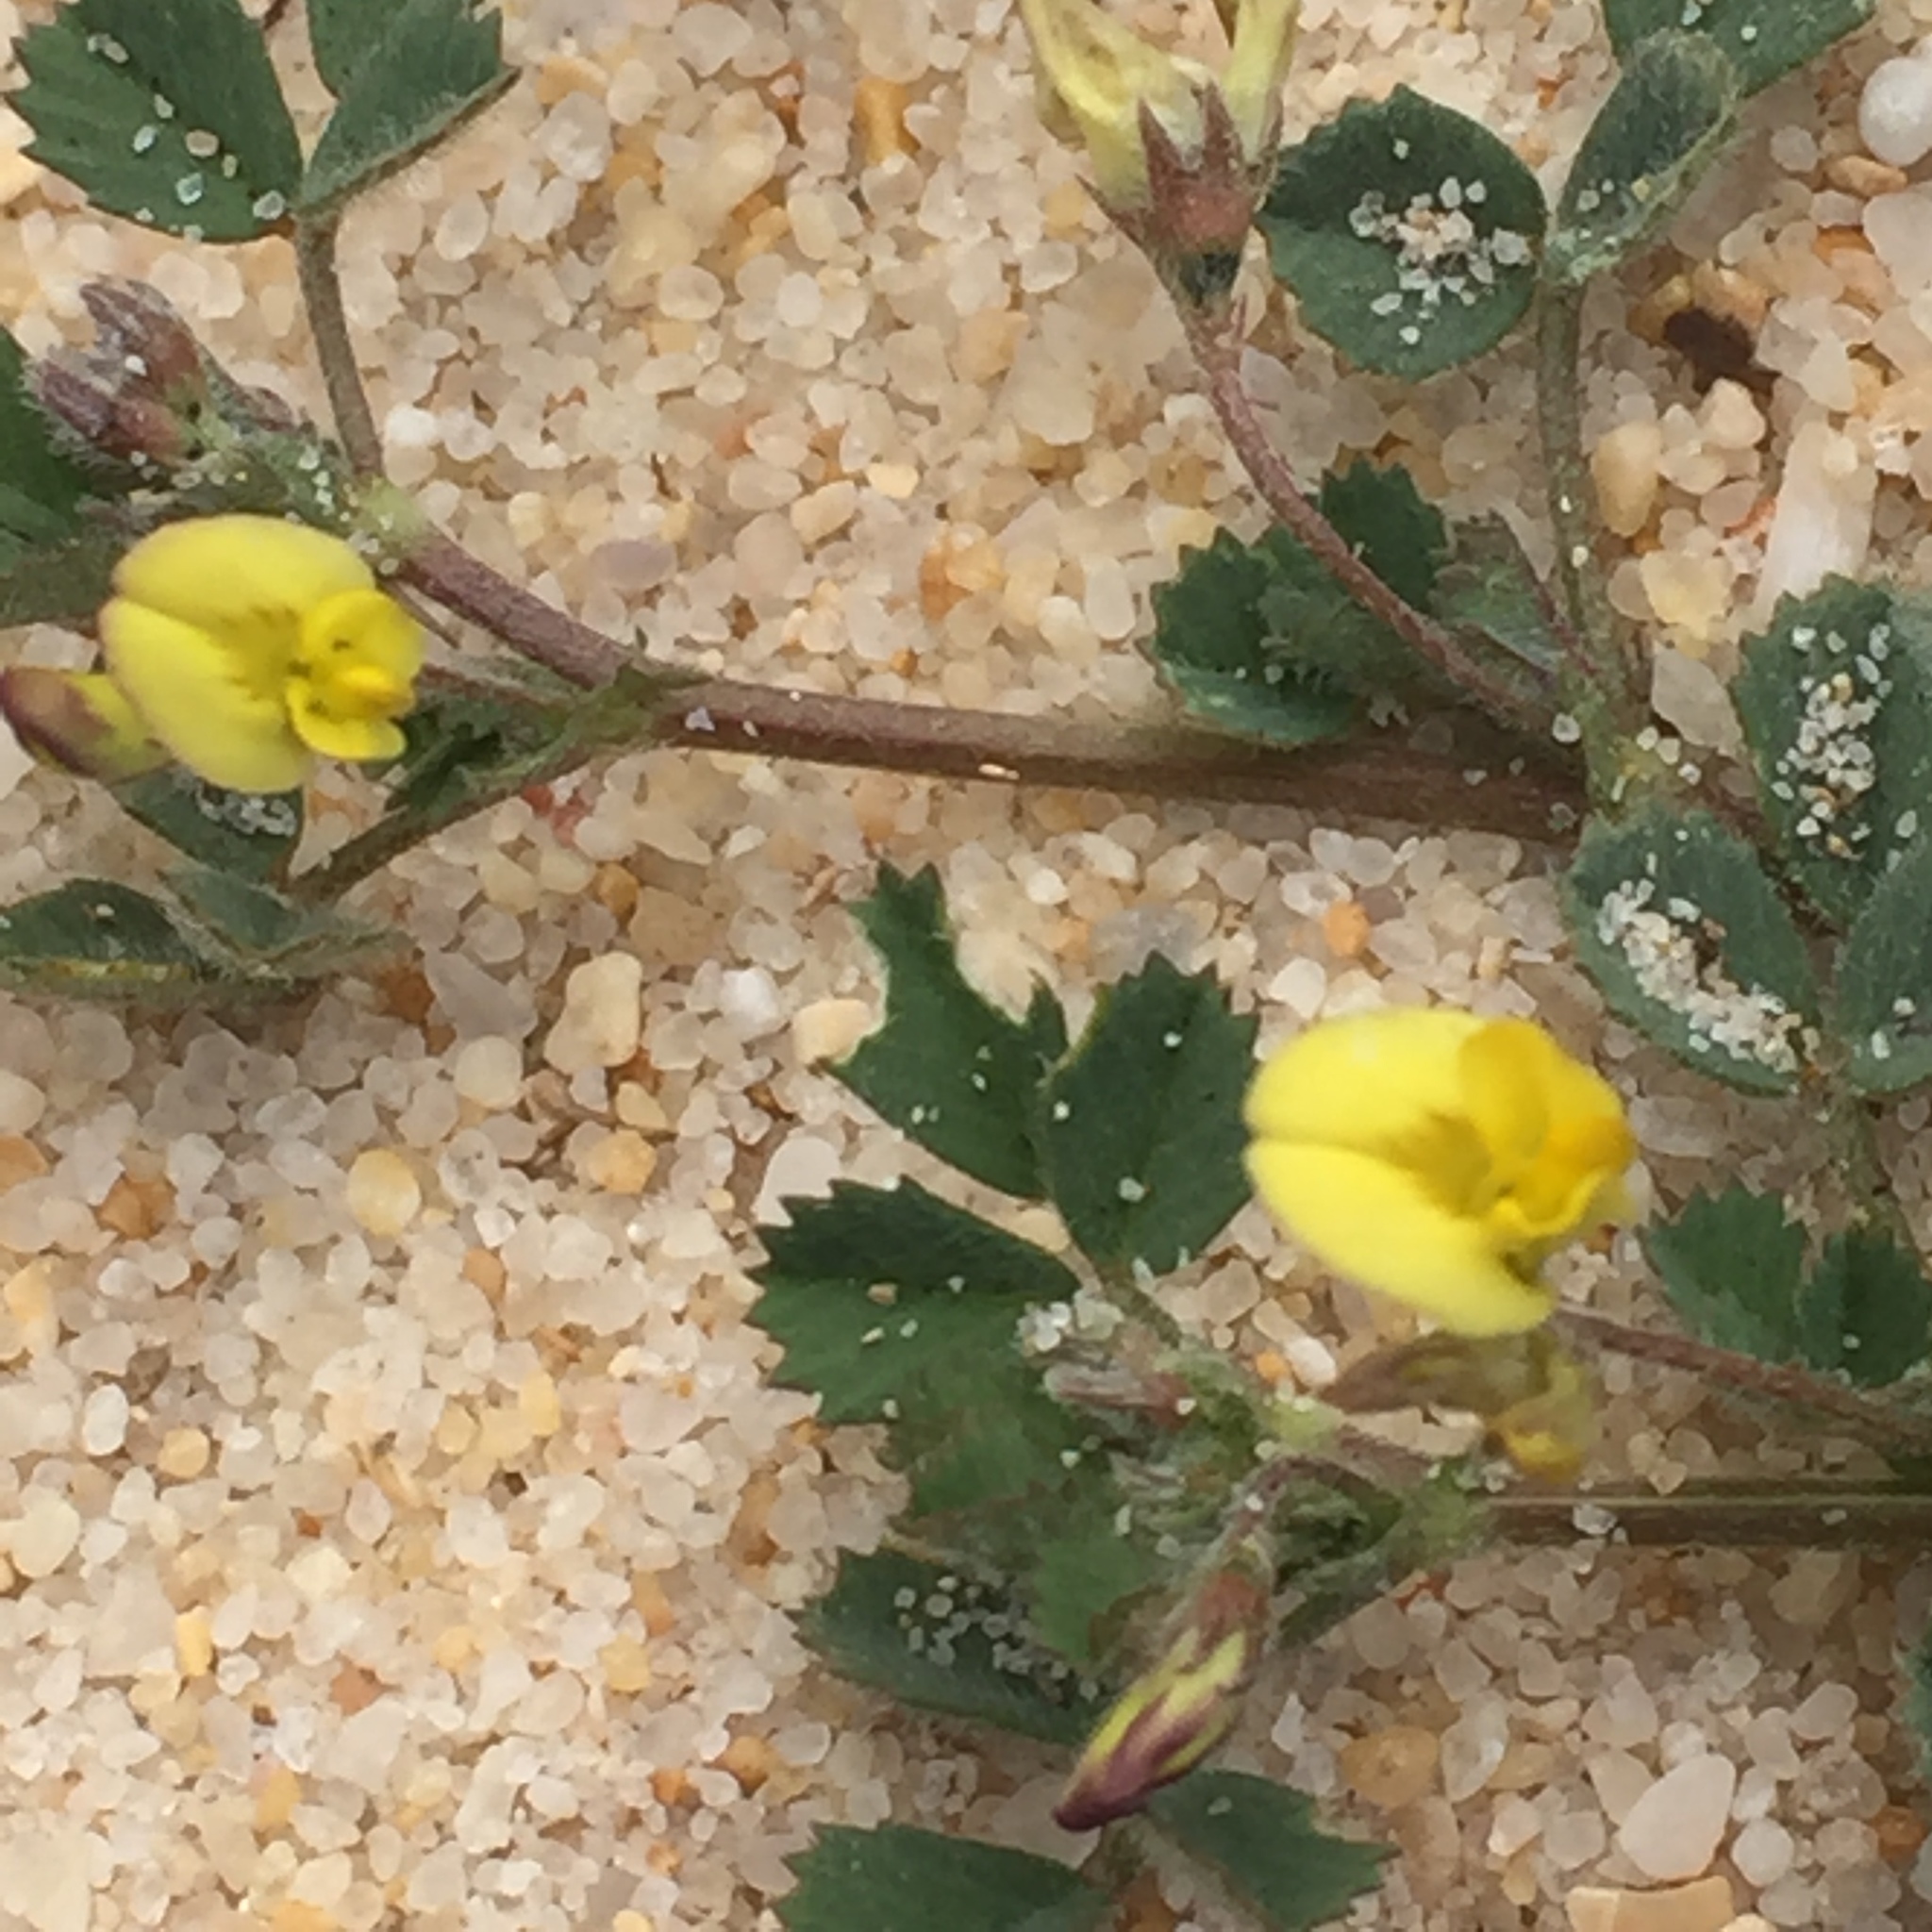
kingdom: Plantae
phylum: Tracheophyta
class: Magnoliopsida
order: Fabales
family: Fabaceae
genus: Medicago
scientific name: Medicago littoralis
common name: Shore medick
